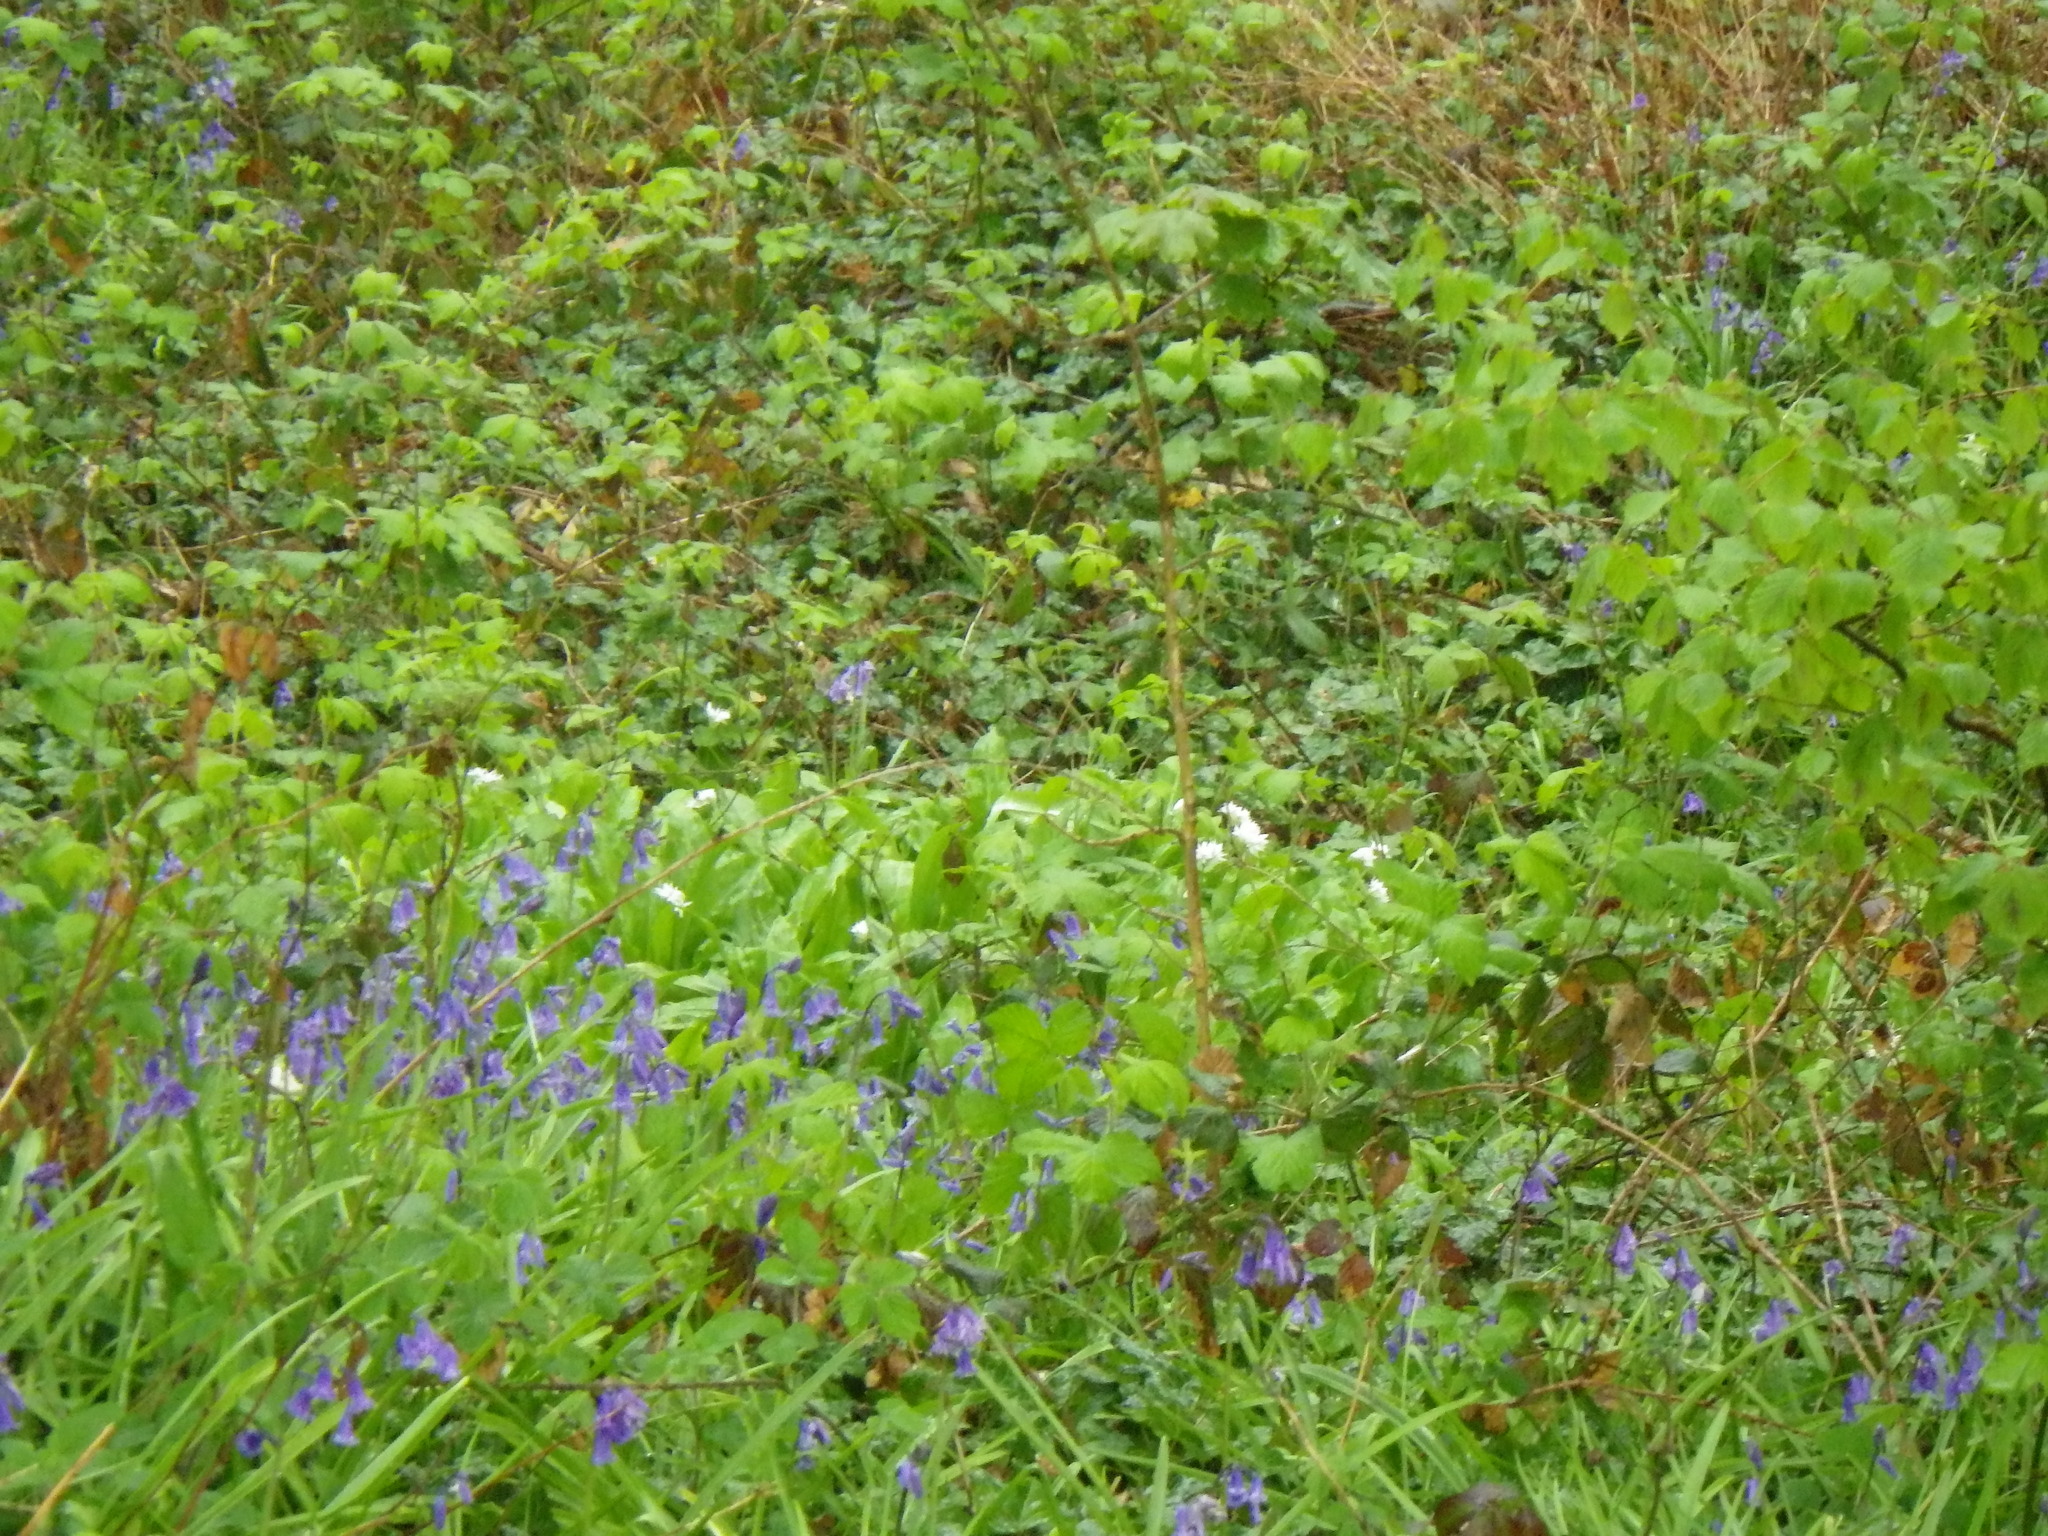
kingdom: Plantae
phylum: Tracheophyta
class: Liliopsida
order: Asparagales
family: Amaryllidaceae
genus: Allium
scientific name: Allium ursinum
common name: Ramsons
